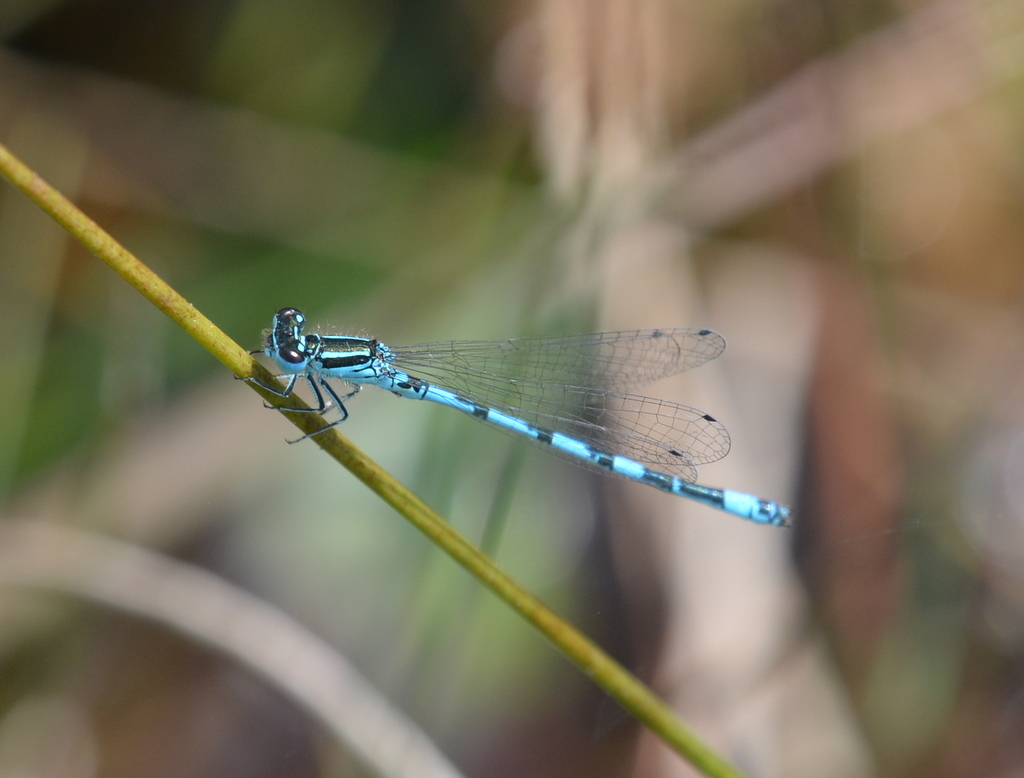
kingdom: Animalia
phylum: Arthropoda
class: Insecta
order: Odonata
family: Coenagrionidae
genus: Coenagrion
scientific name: Coenagrion mercuriale
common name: Southern damselfly
